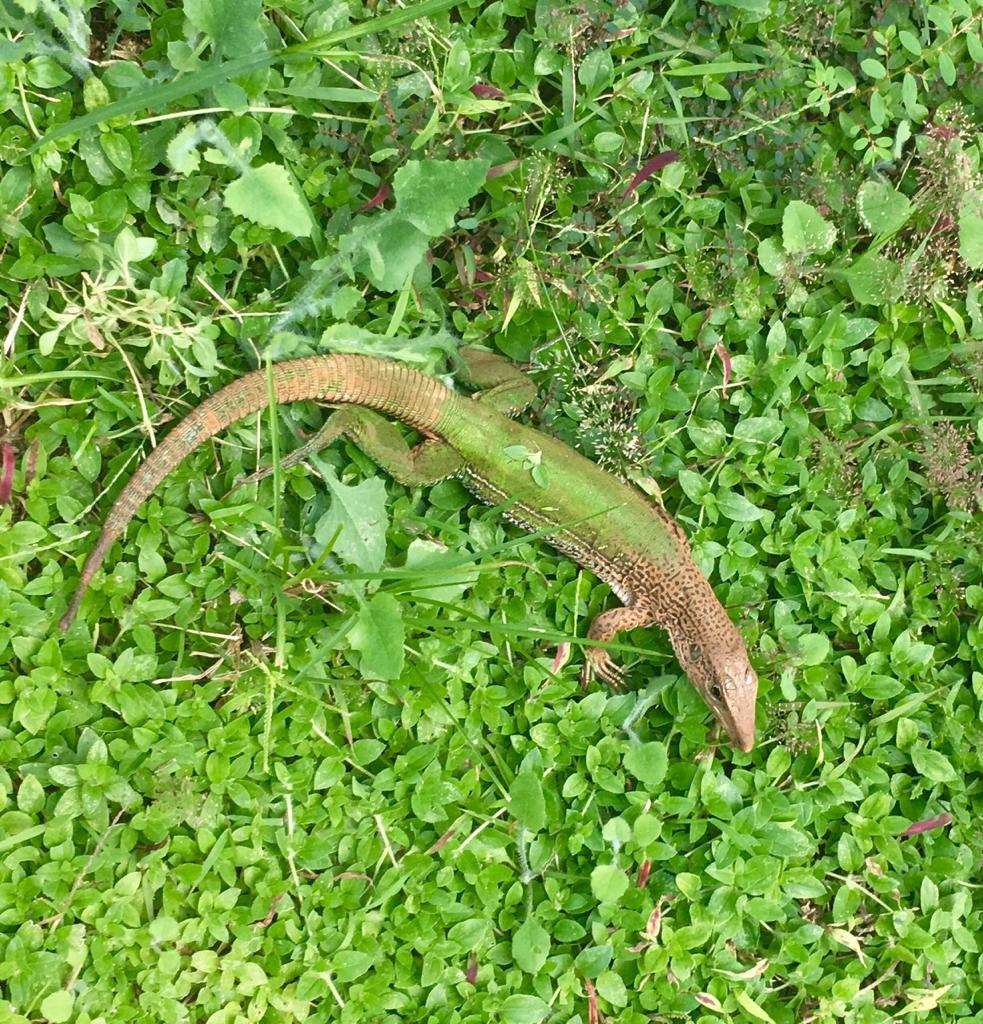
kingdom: Animalia
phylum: Chordata
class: Squamata
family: Teiidae
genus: Ameiva
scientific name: Ameiva ameiva
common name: Giant ameiva
